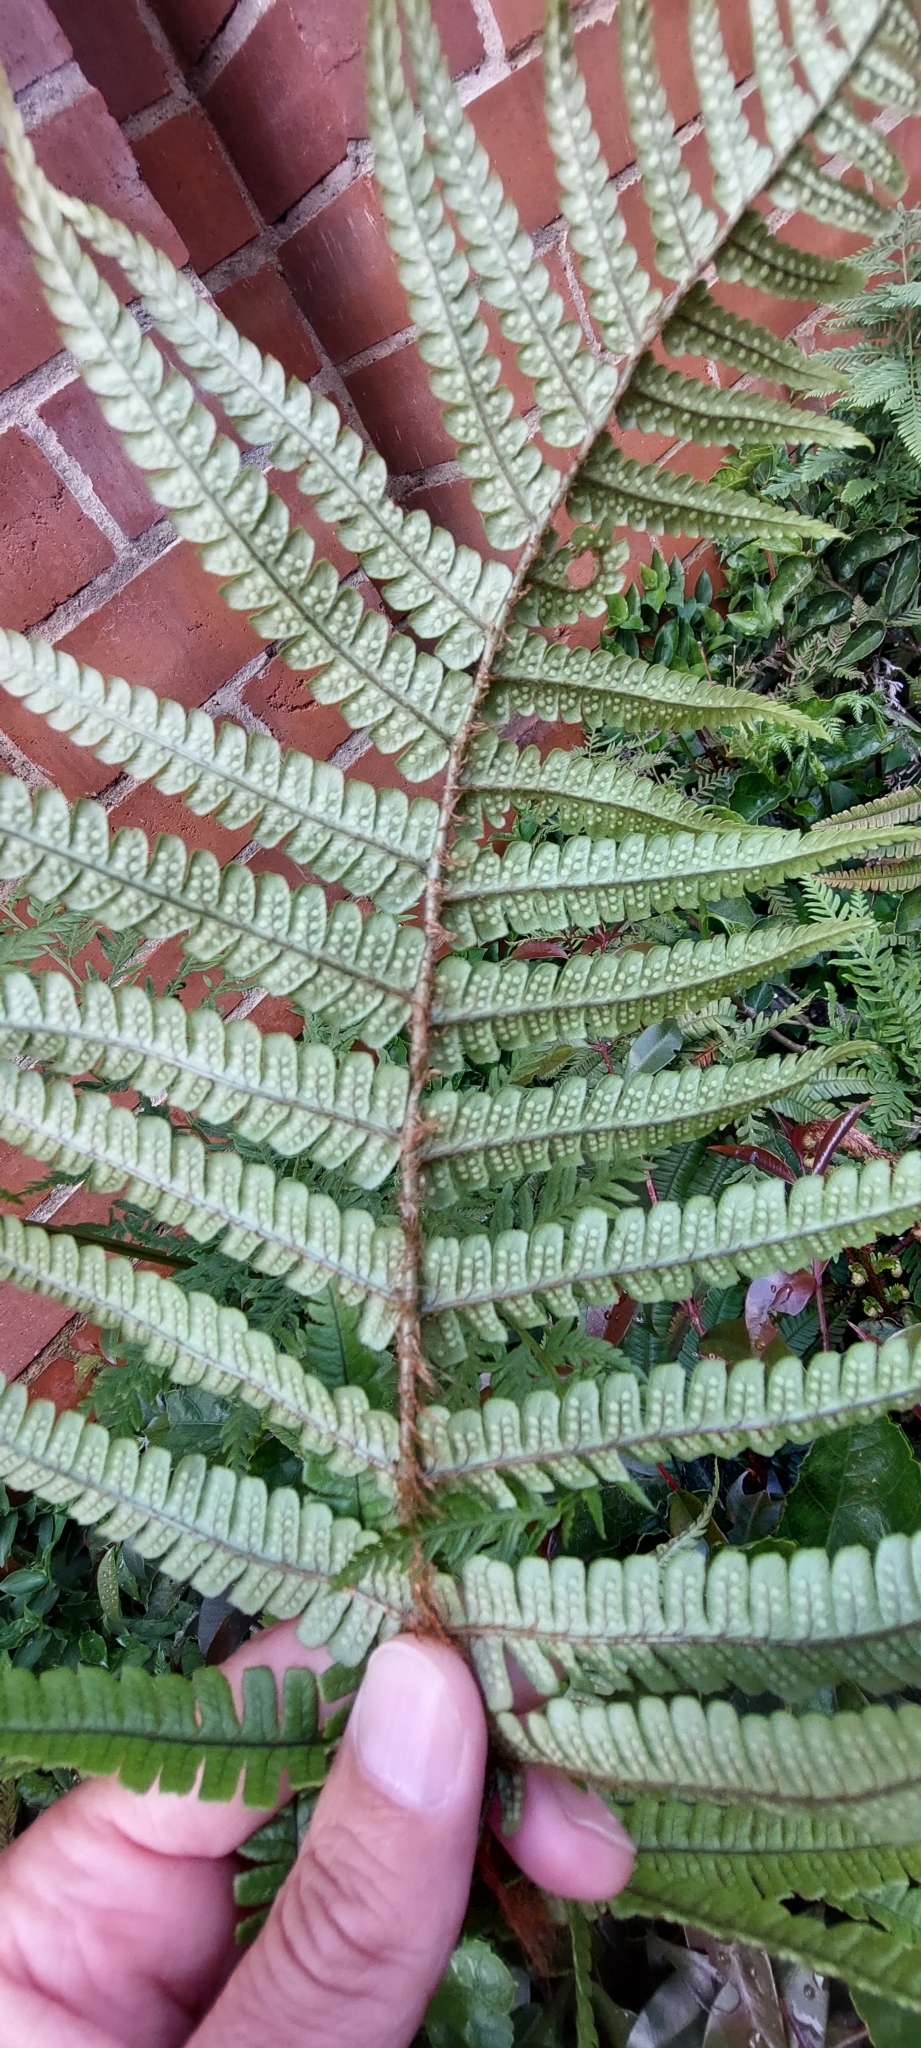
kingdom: Plantae
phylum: Tracheophyta
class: Polypodiopsida
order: Polypodiales
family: Dryopteridaceae
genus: Dryopteris
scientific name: Dryopteris wallichiana
